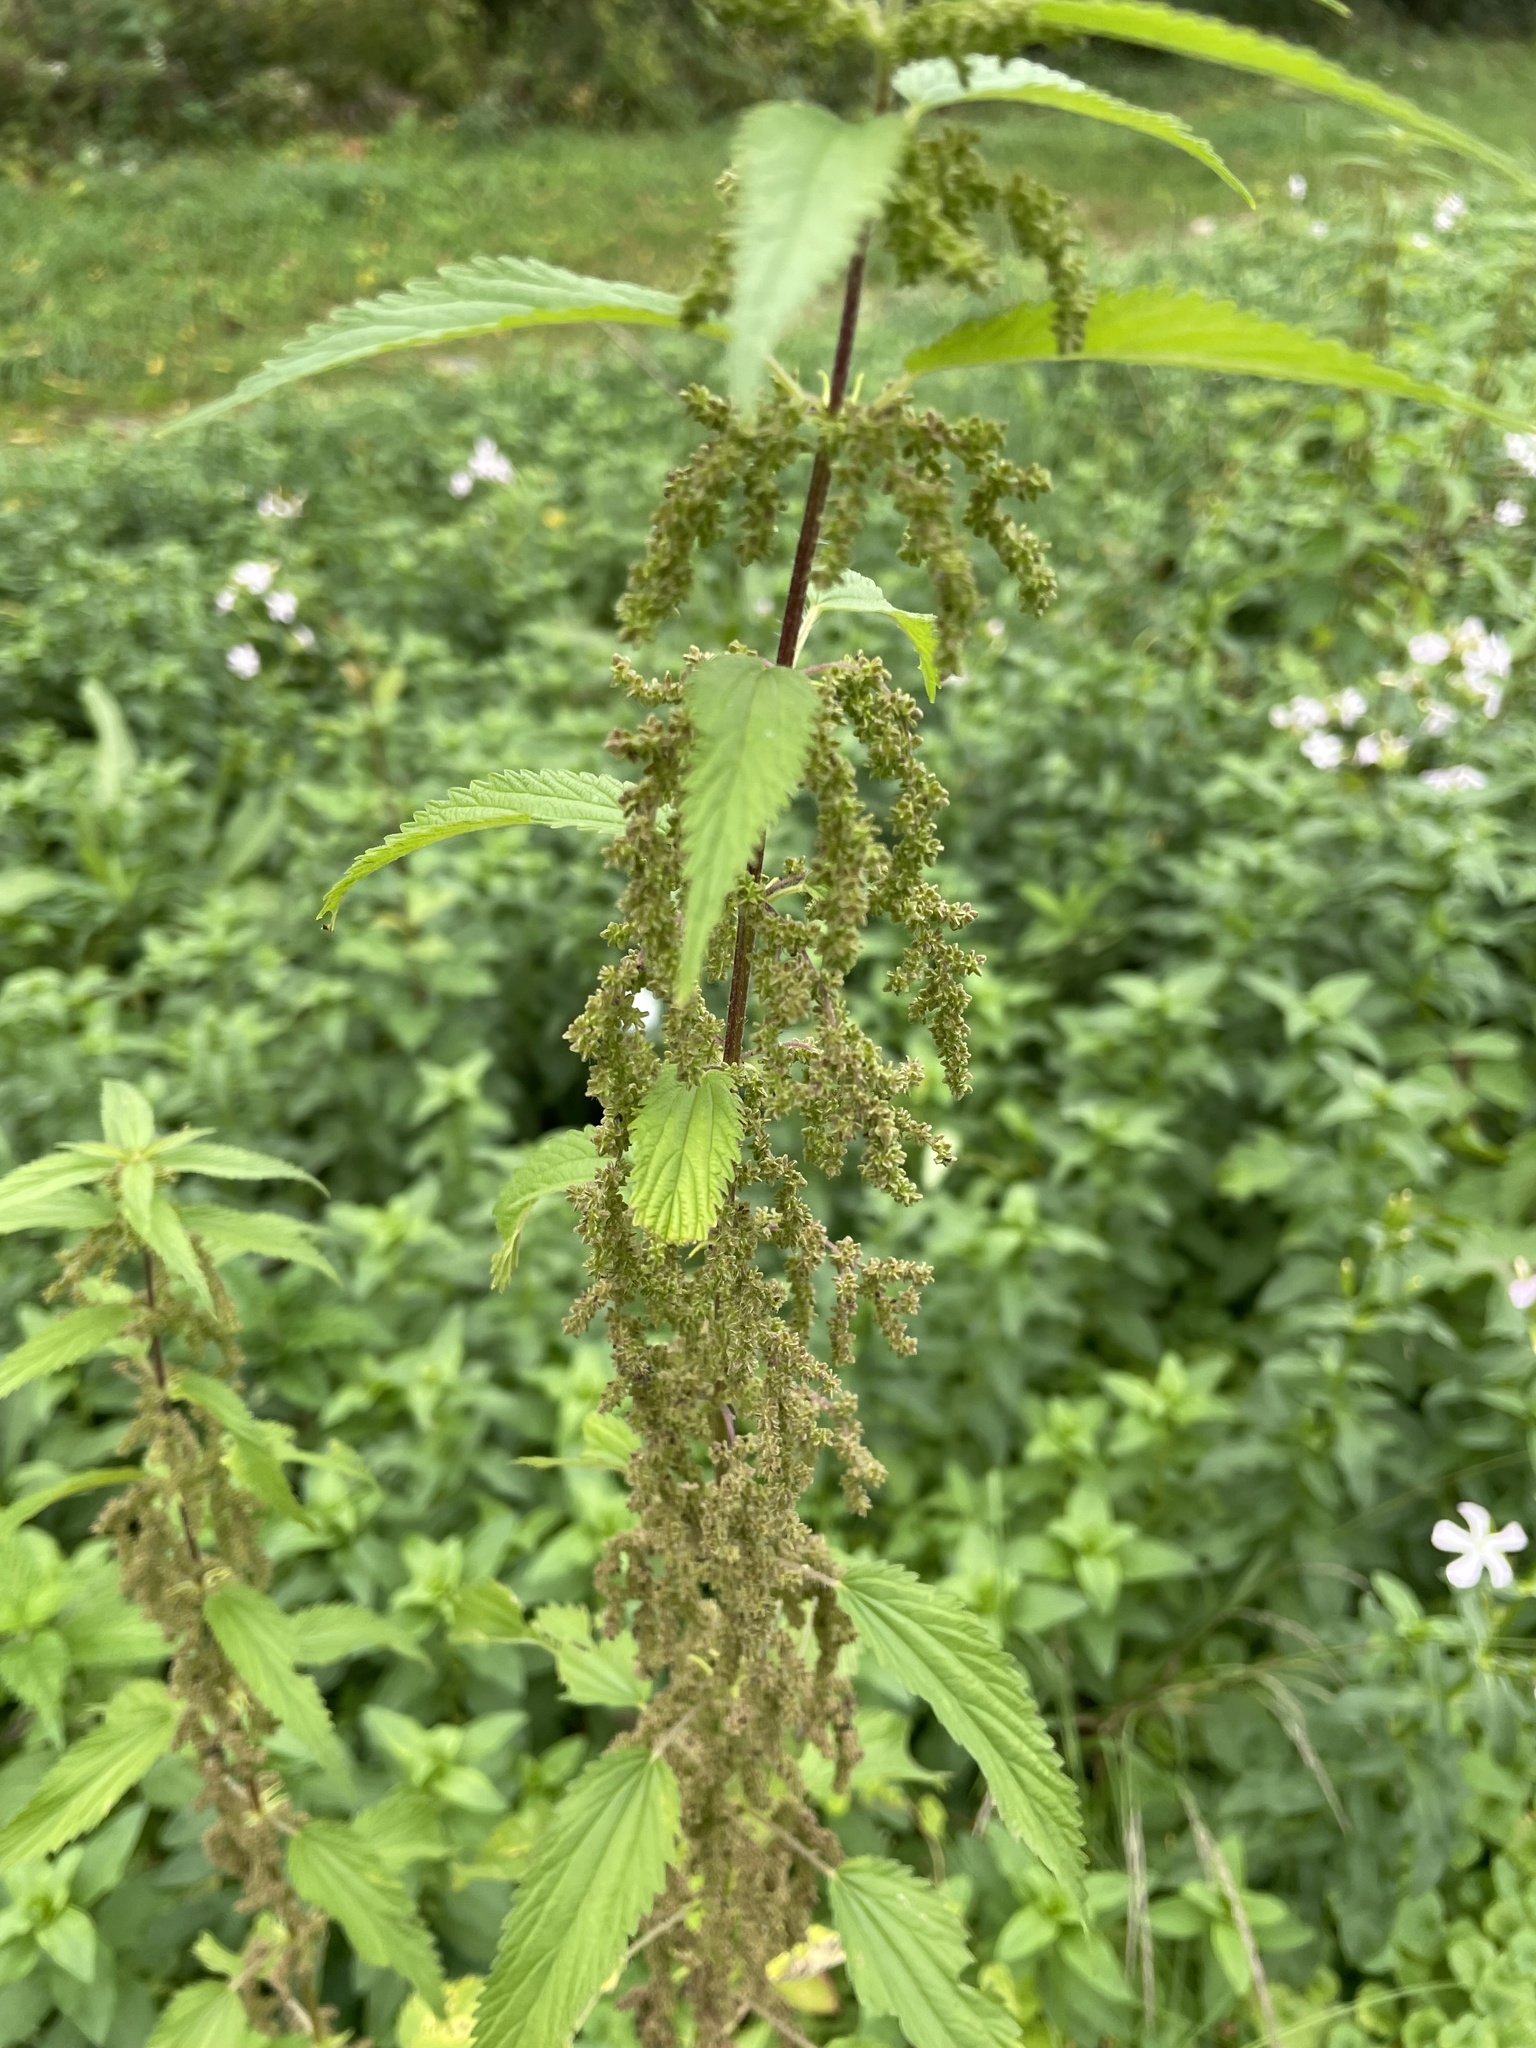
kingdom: Plantae
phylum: Tracheophyta
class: Magnoliopsida
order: Rosales
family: Urticaceae
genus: Urtica
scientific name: Urtica dioica
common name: Common nettle
